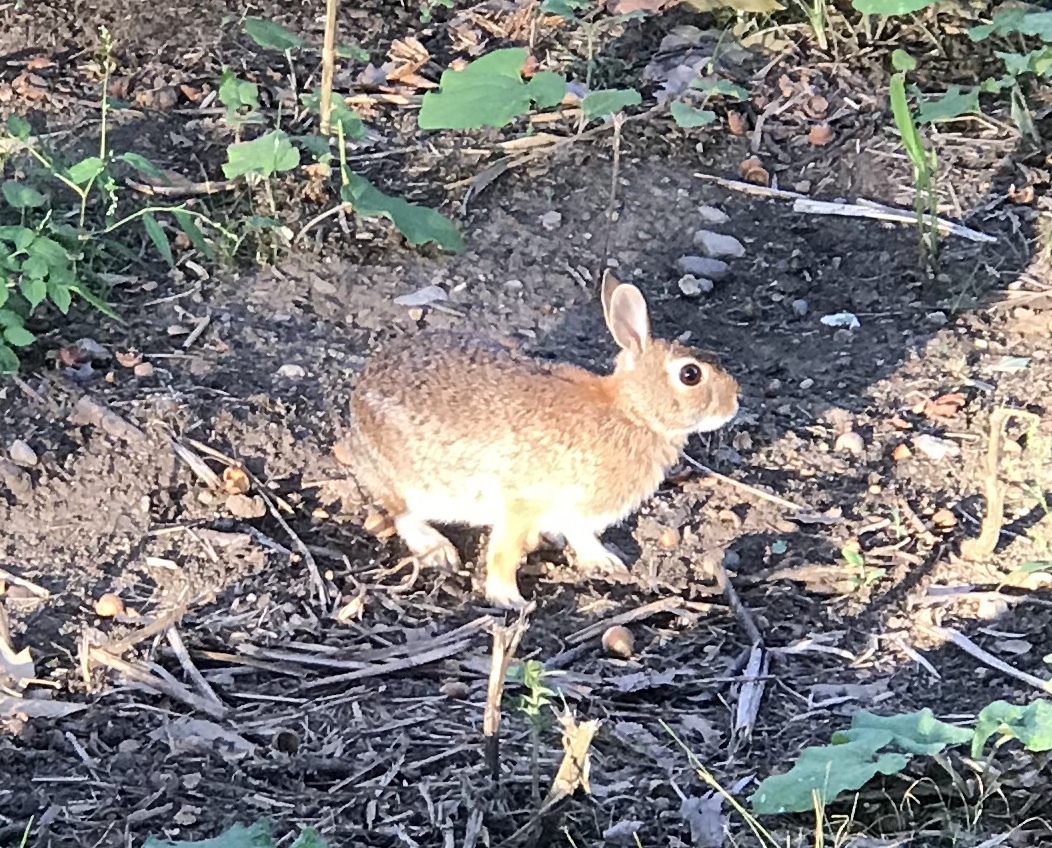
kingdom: Animalia
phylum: Chordata
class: Mammalia
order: Lagomorpha
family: Leporidae
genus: Sylvilagus
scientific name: Sylvilagus floridanus
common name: Eastern cottontail
